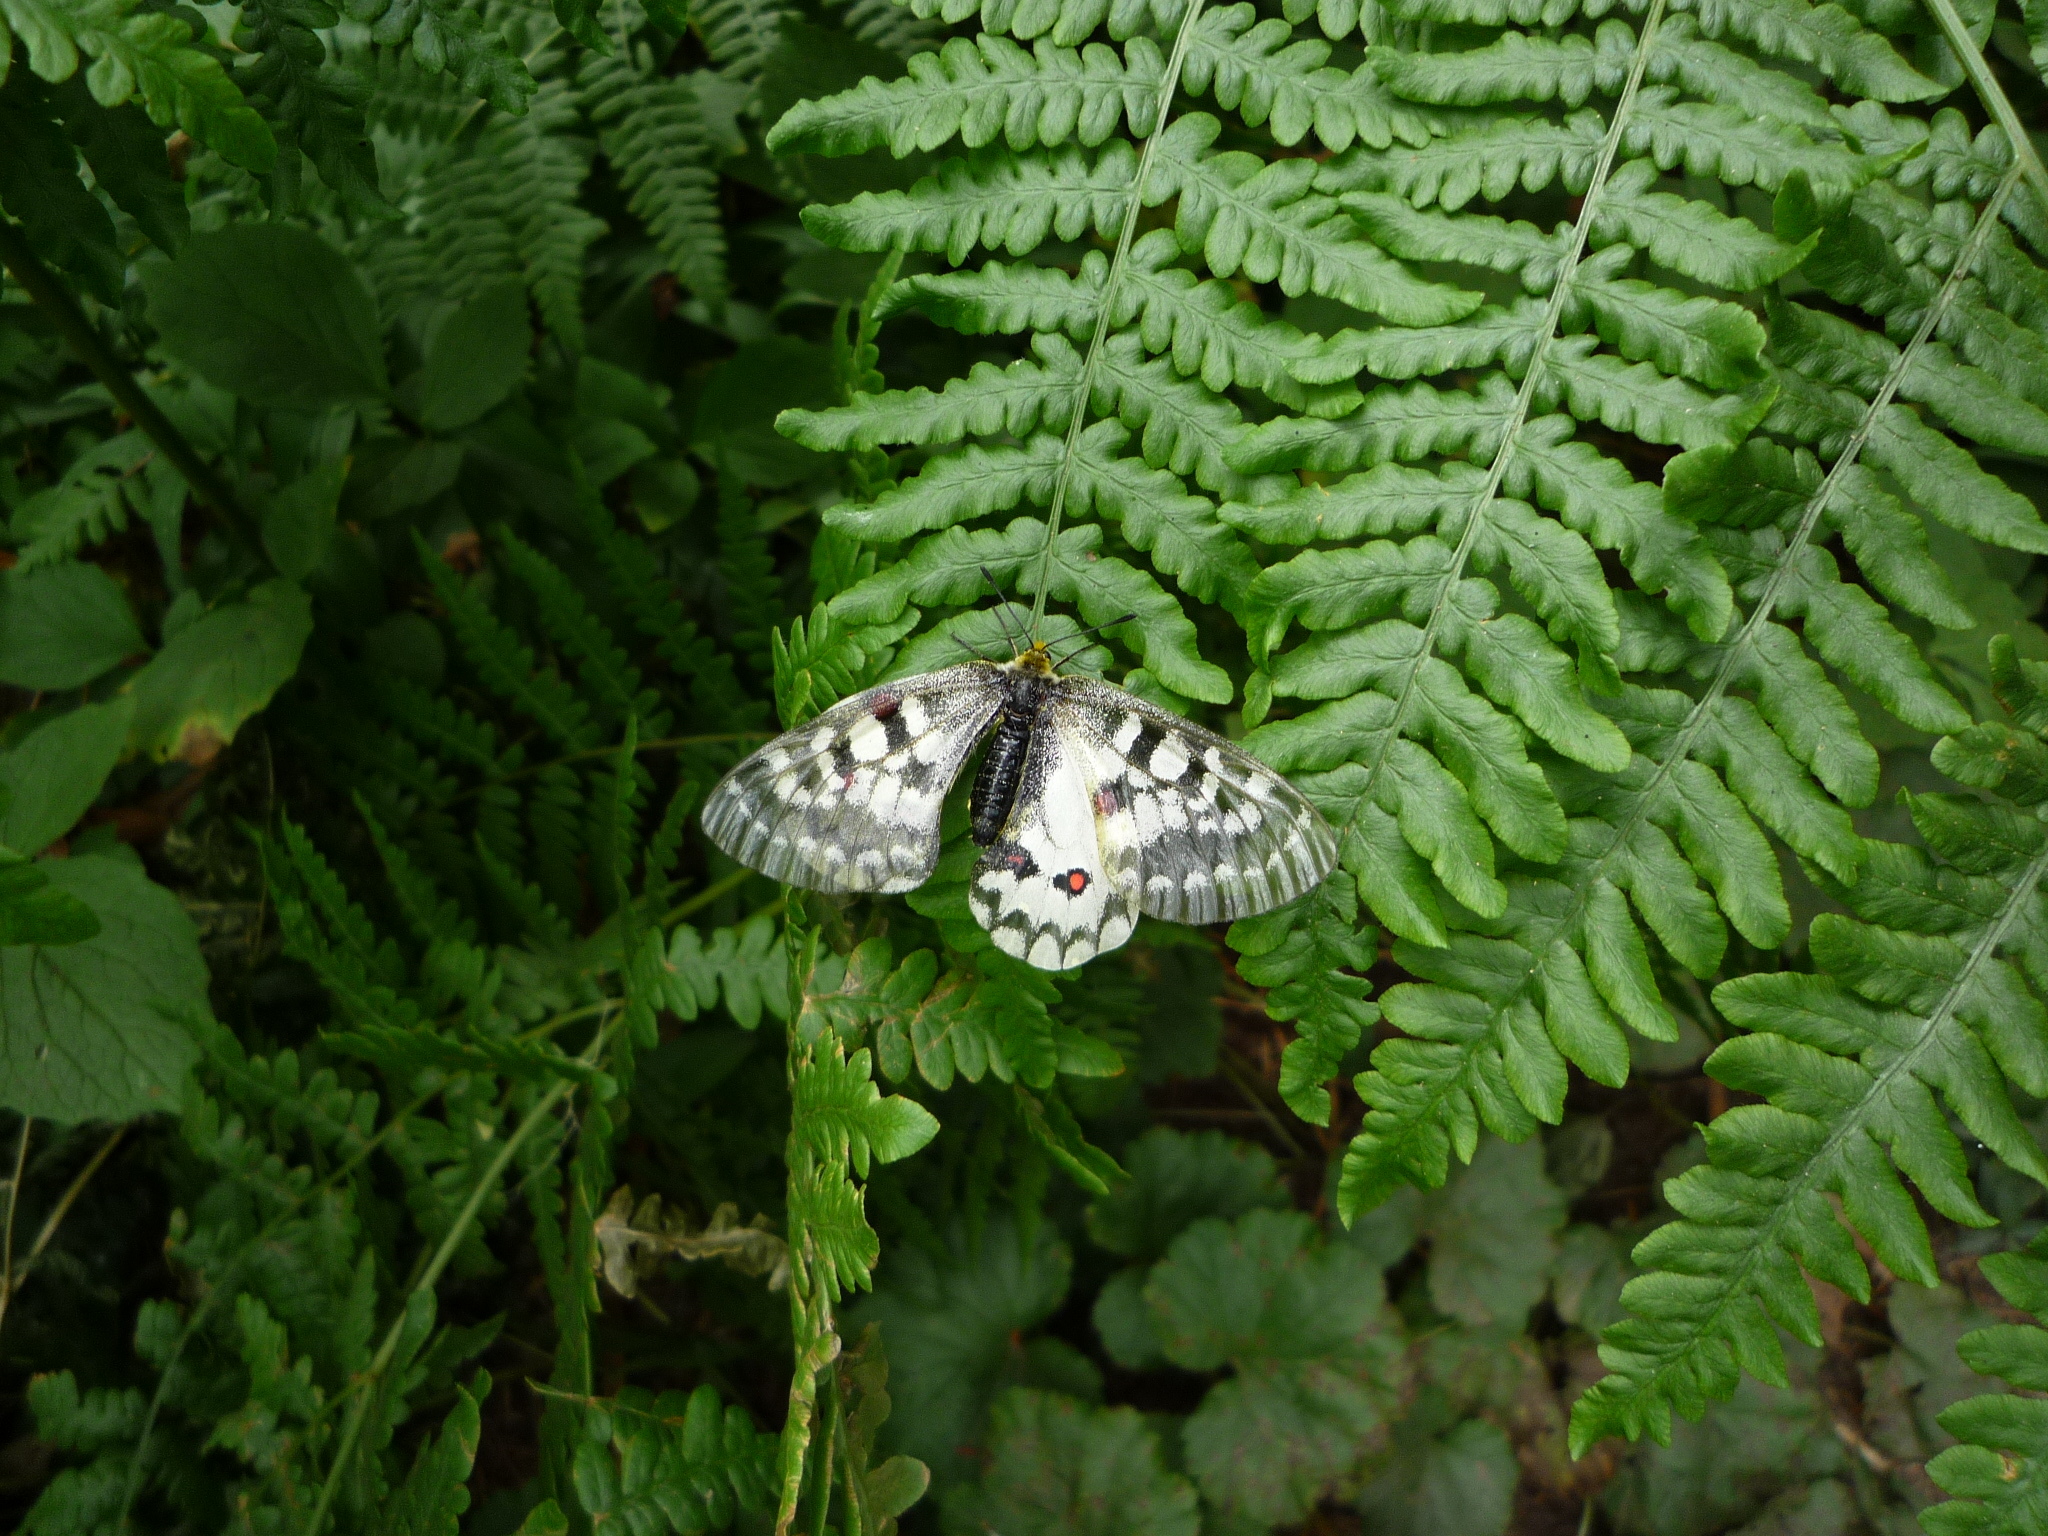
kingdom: Animalia
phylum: Arthropoda
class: Insecta
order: Lepidoptera
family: Papilionidae
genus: Parnassius
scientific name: Parnassius clodius
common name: American apollo
